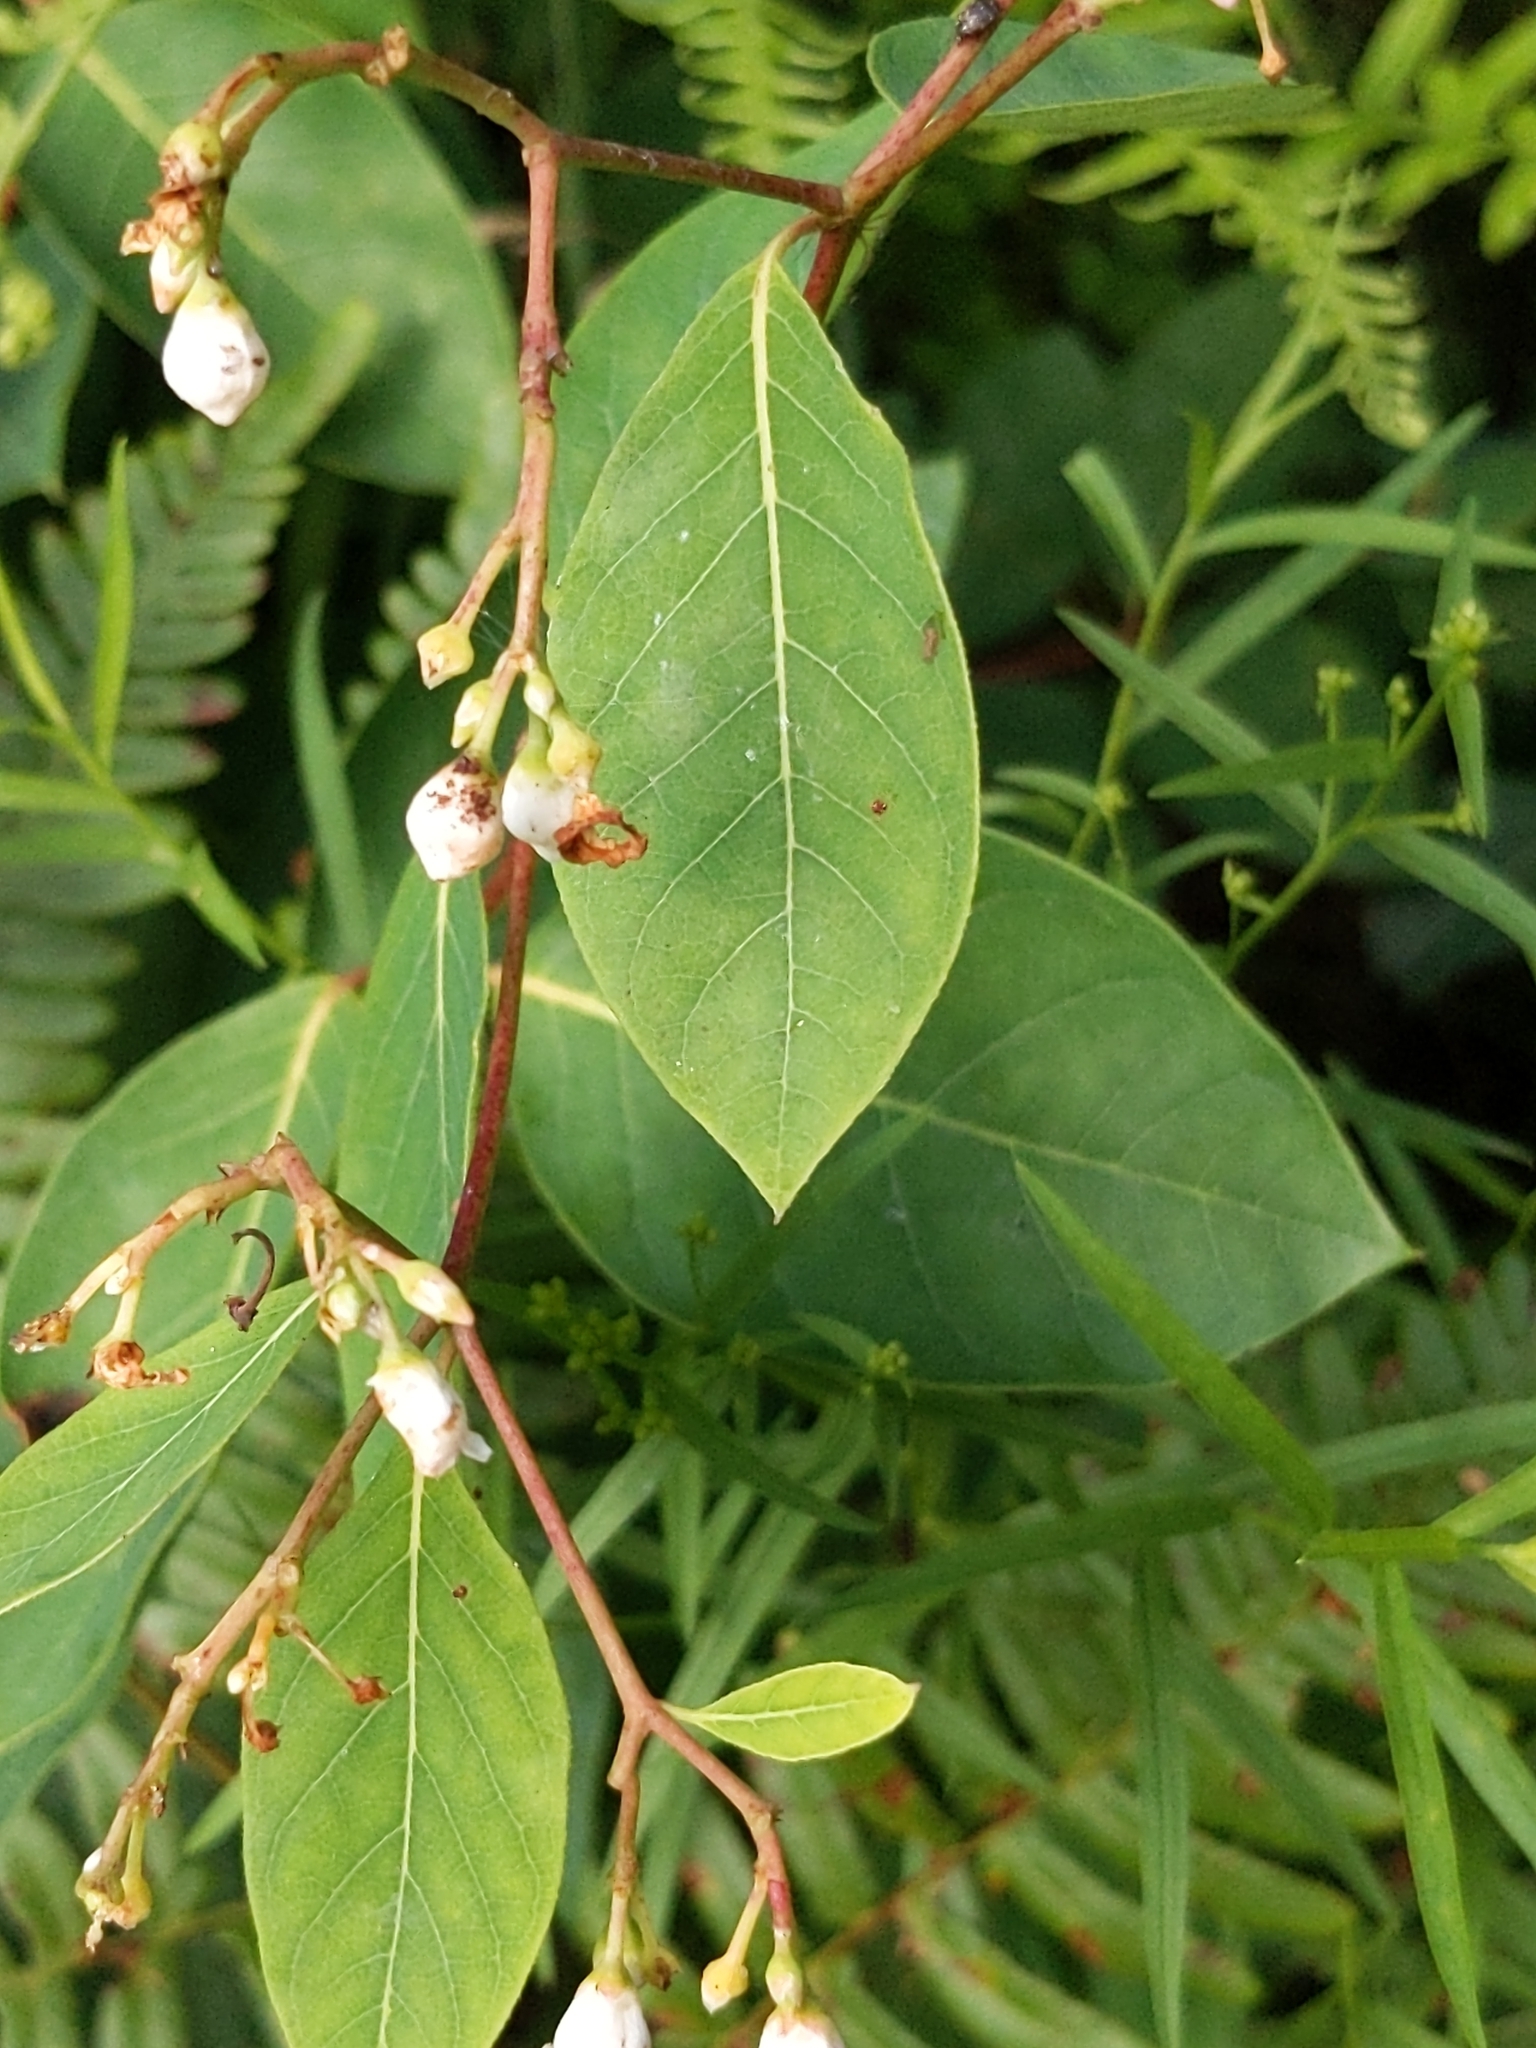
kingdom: Plantae
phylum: Tracheophyta
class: Magnoliopsida
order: Gentianales
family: Apocynaceae
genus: Apocynum
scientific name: Apocynum androsaemifolium
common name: Spreading dogbane
